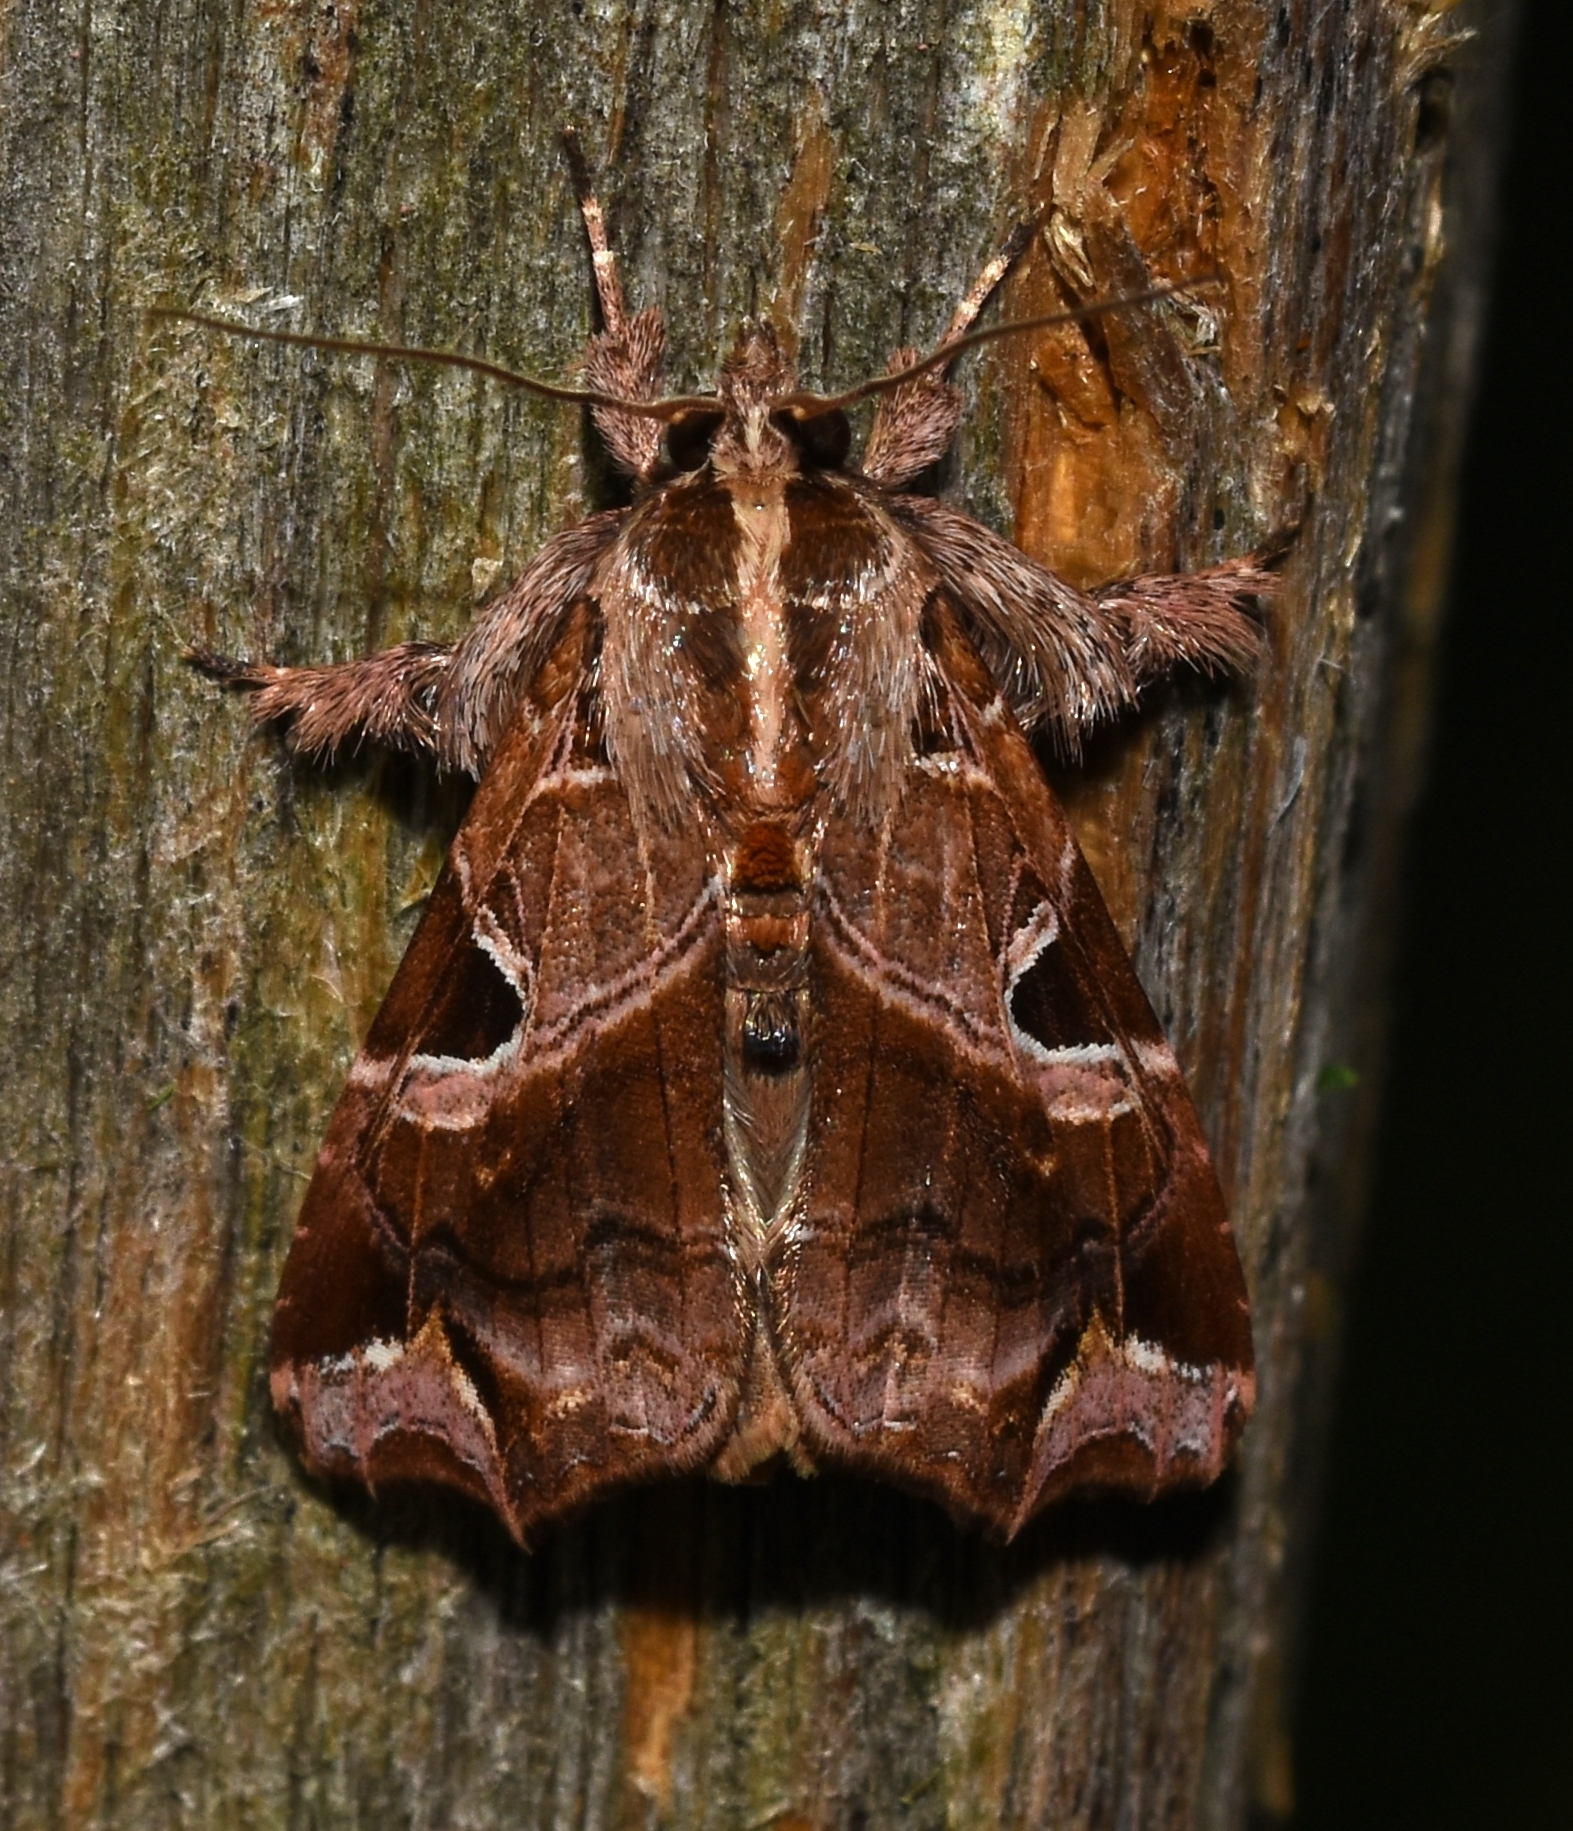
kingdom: Animalia
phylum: Arthropoda
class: Insecta
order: Lepidoptera
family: Noctuidae
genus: Callopistria
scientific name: Callopistria floridensis
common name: Florida fern moth
